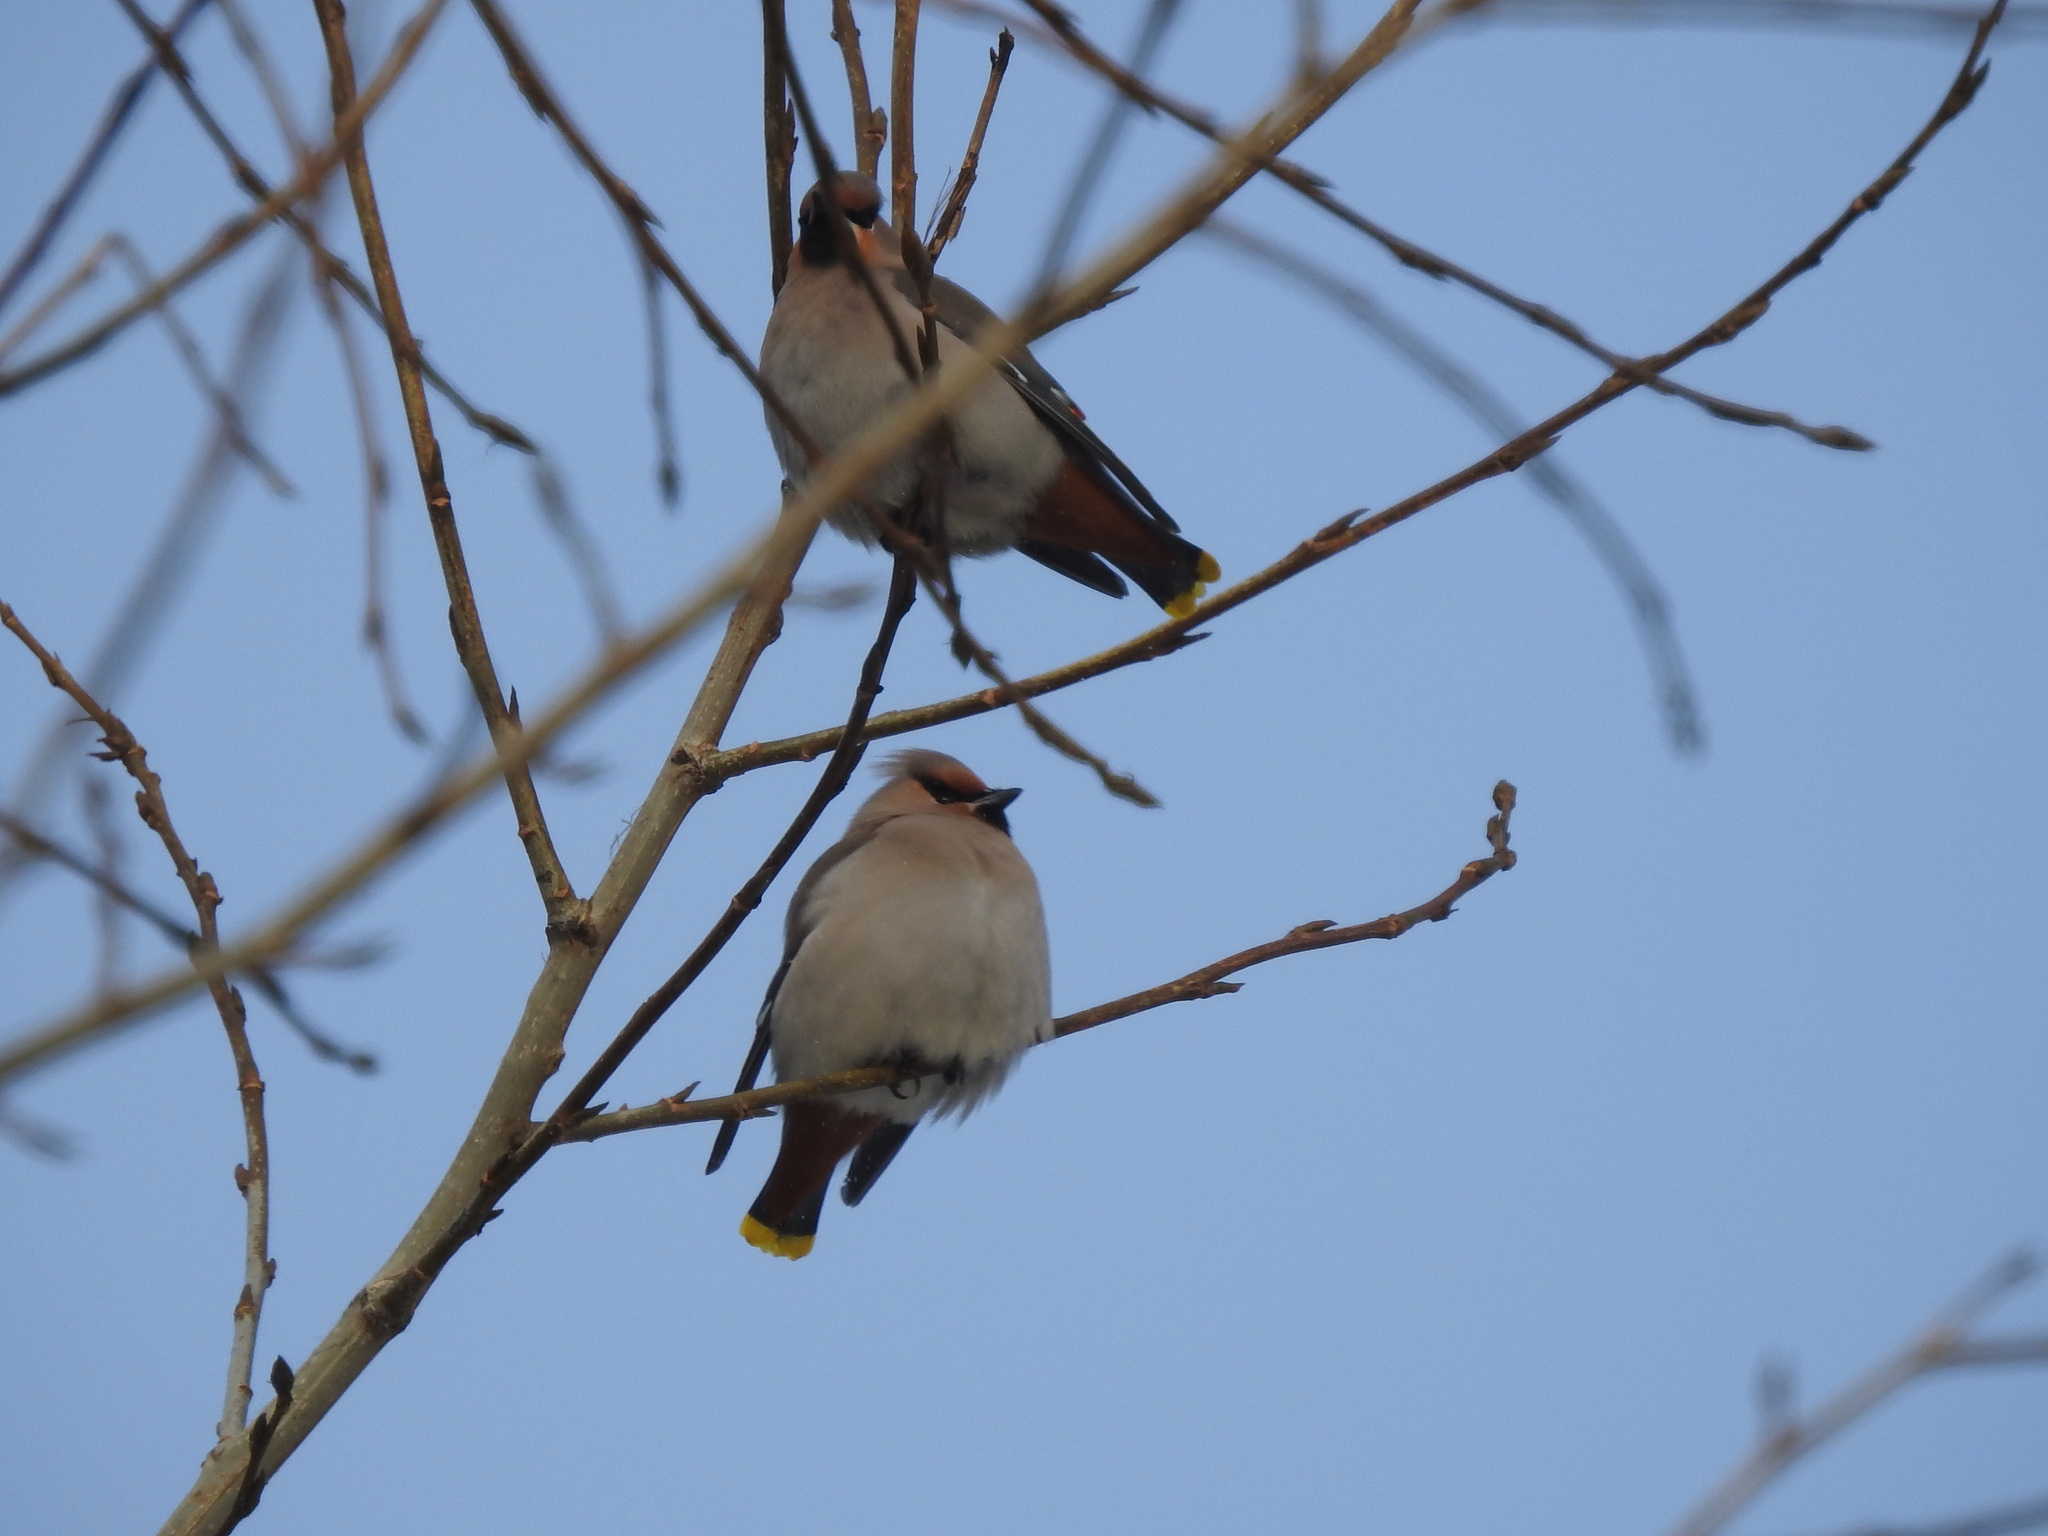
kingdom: Animalia
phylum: Chordata
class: Aves
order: Passeriformes
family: Bombycillidae
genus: Bombycilla
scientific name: Bombycilla garrulus
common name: Bohemian waxwing
